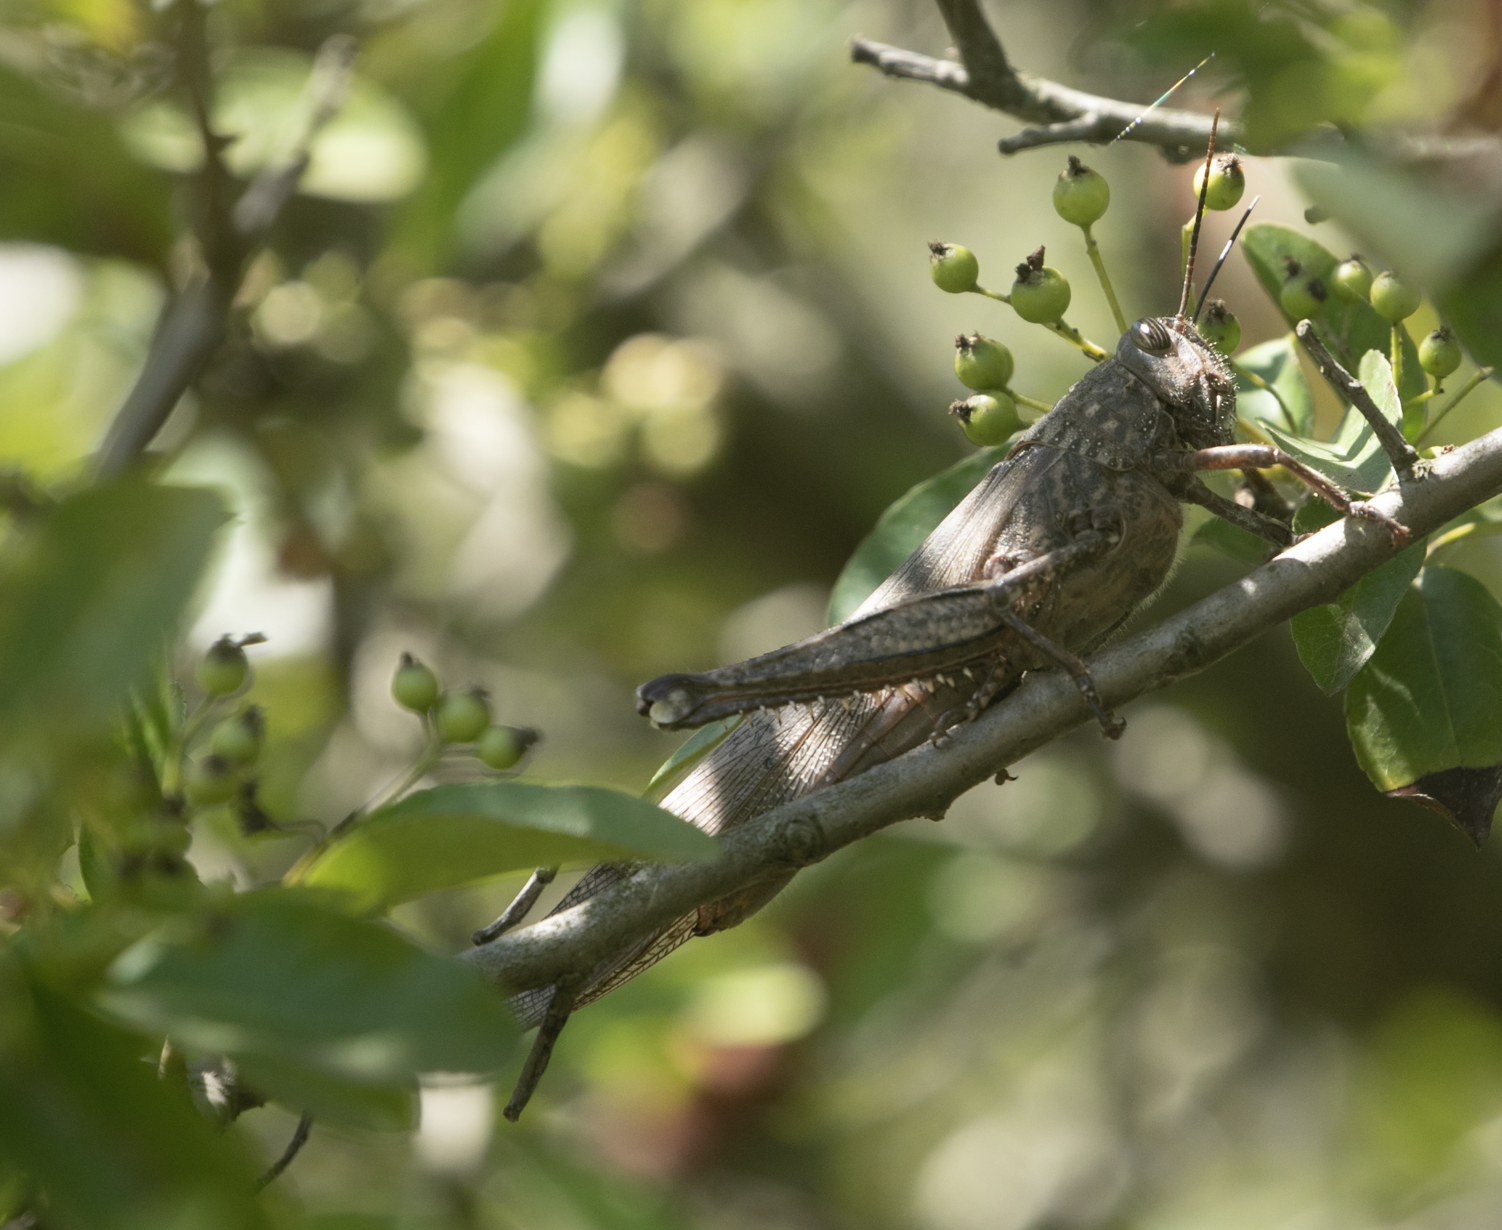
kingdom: Animalia
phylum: Arthropoda
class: Insecta
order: Orthoptera
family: Acrididae
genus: Anacridium
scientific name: Anacridium aegyptium
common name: Egyptian grasshopper
